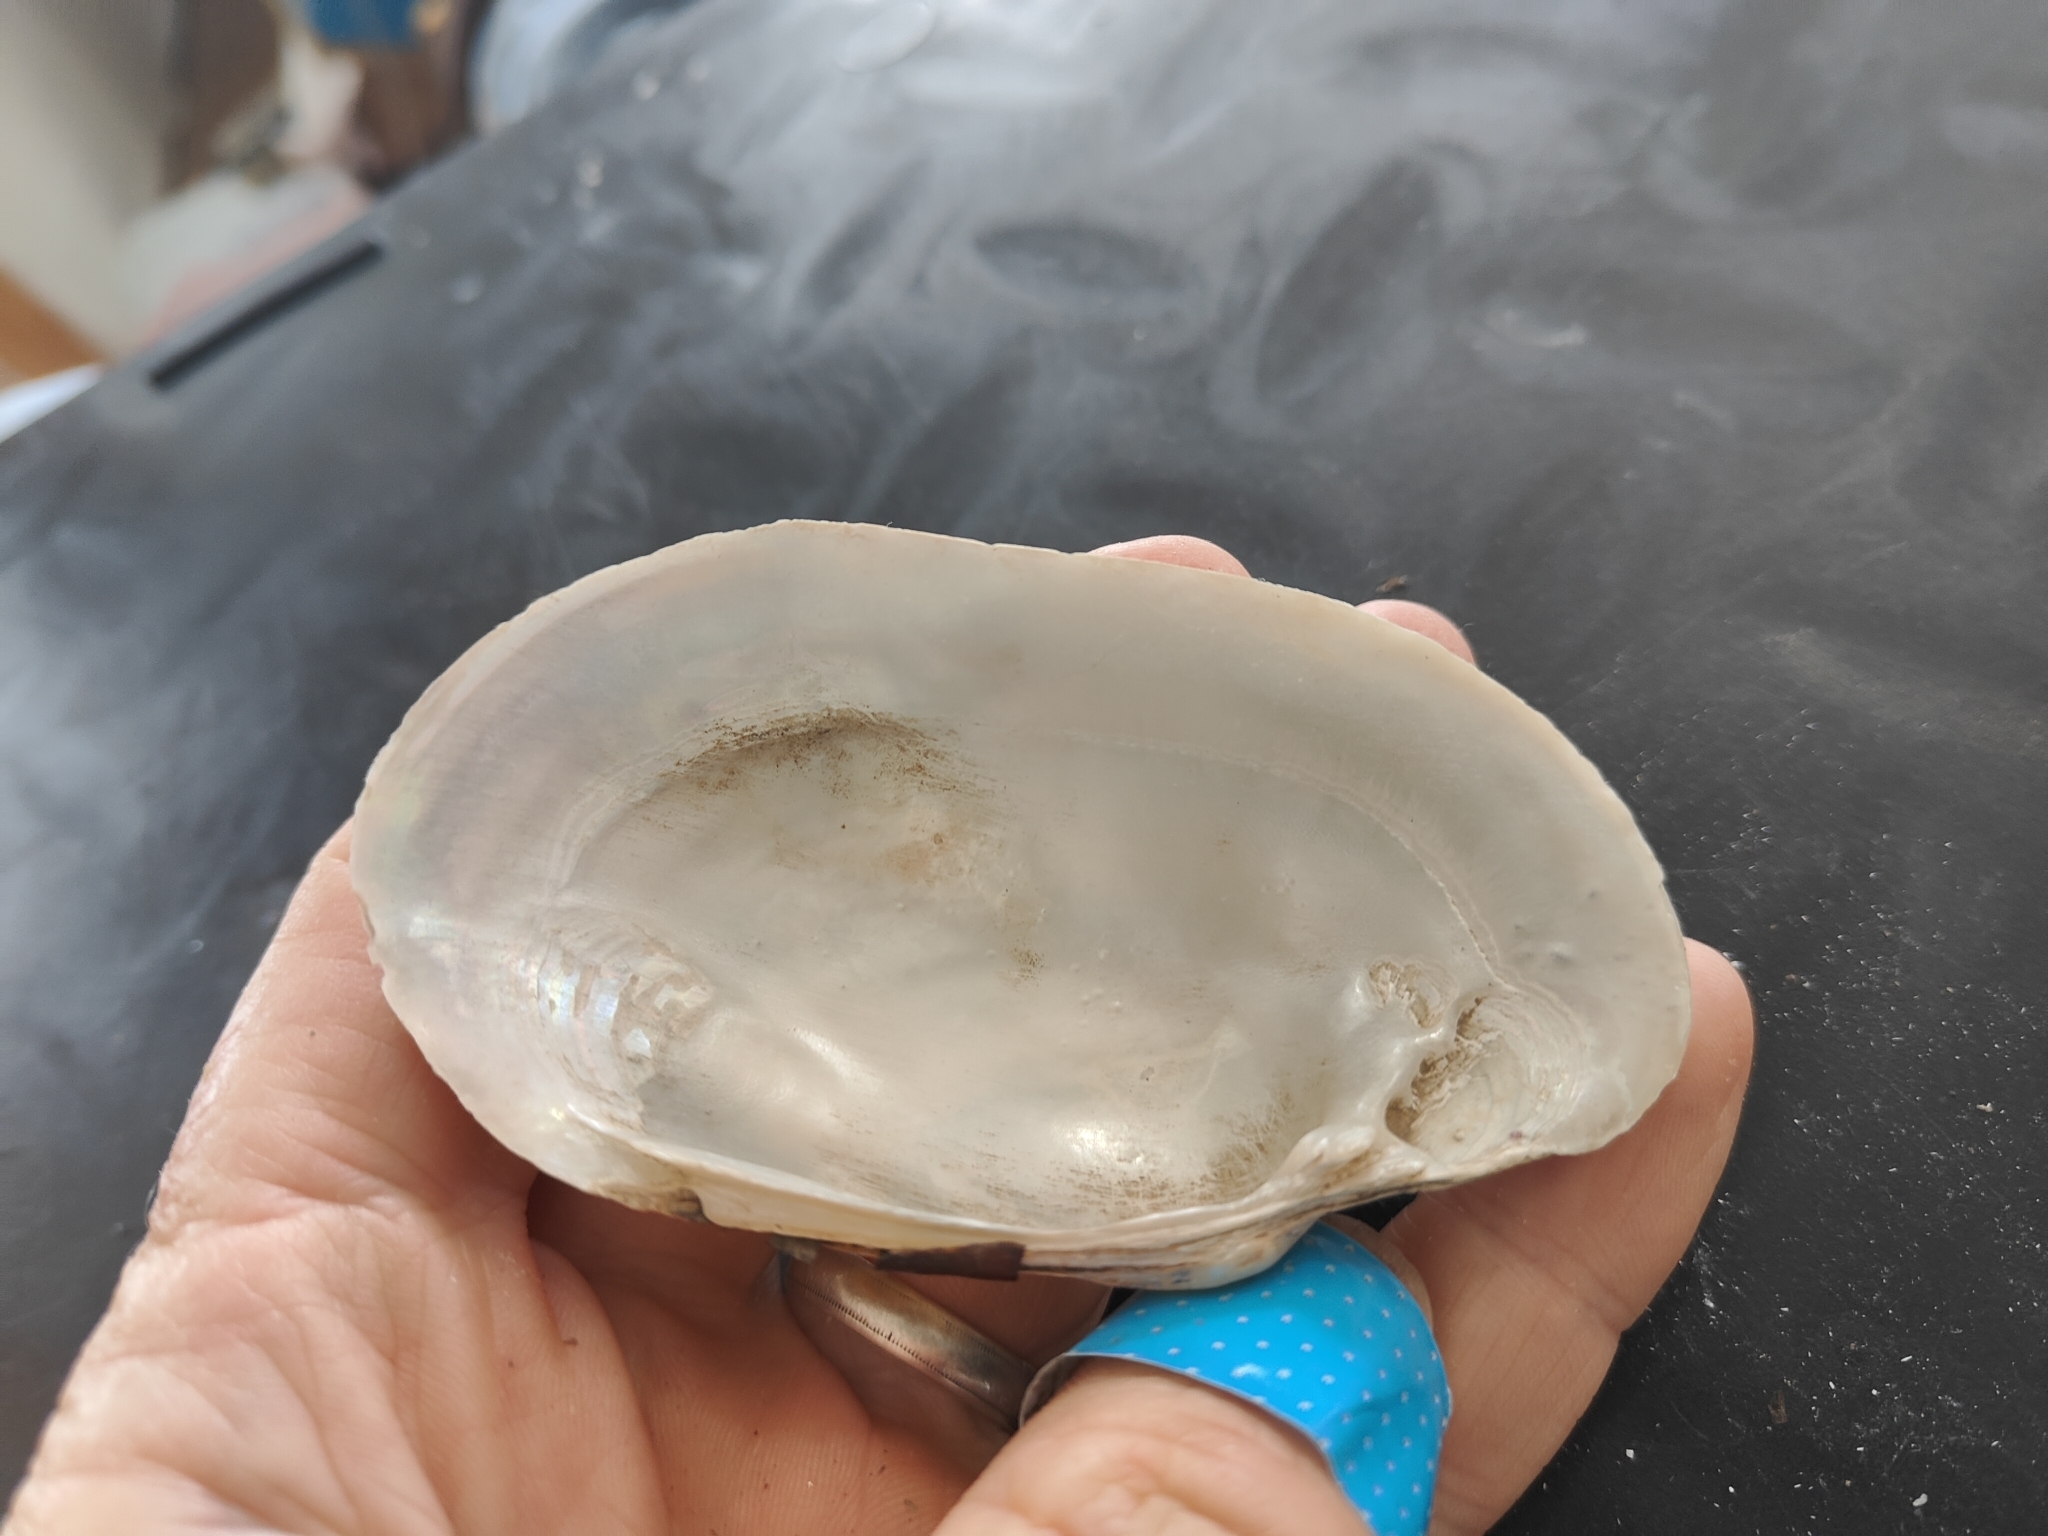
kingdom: Animalia
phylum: Mollusca
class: Bivalvia
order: Unionida
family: Unionidae
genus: Lampsilis
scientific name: Lampsilis siliquoidea
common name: Fatmucket
